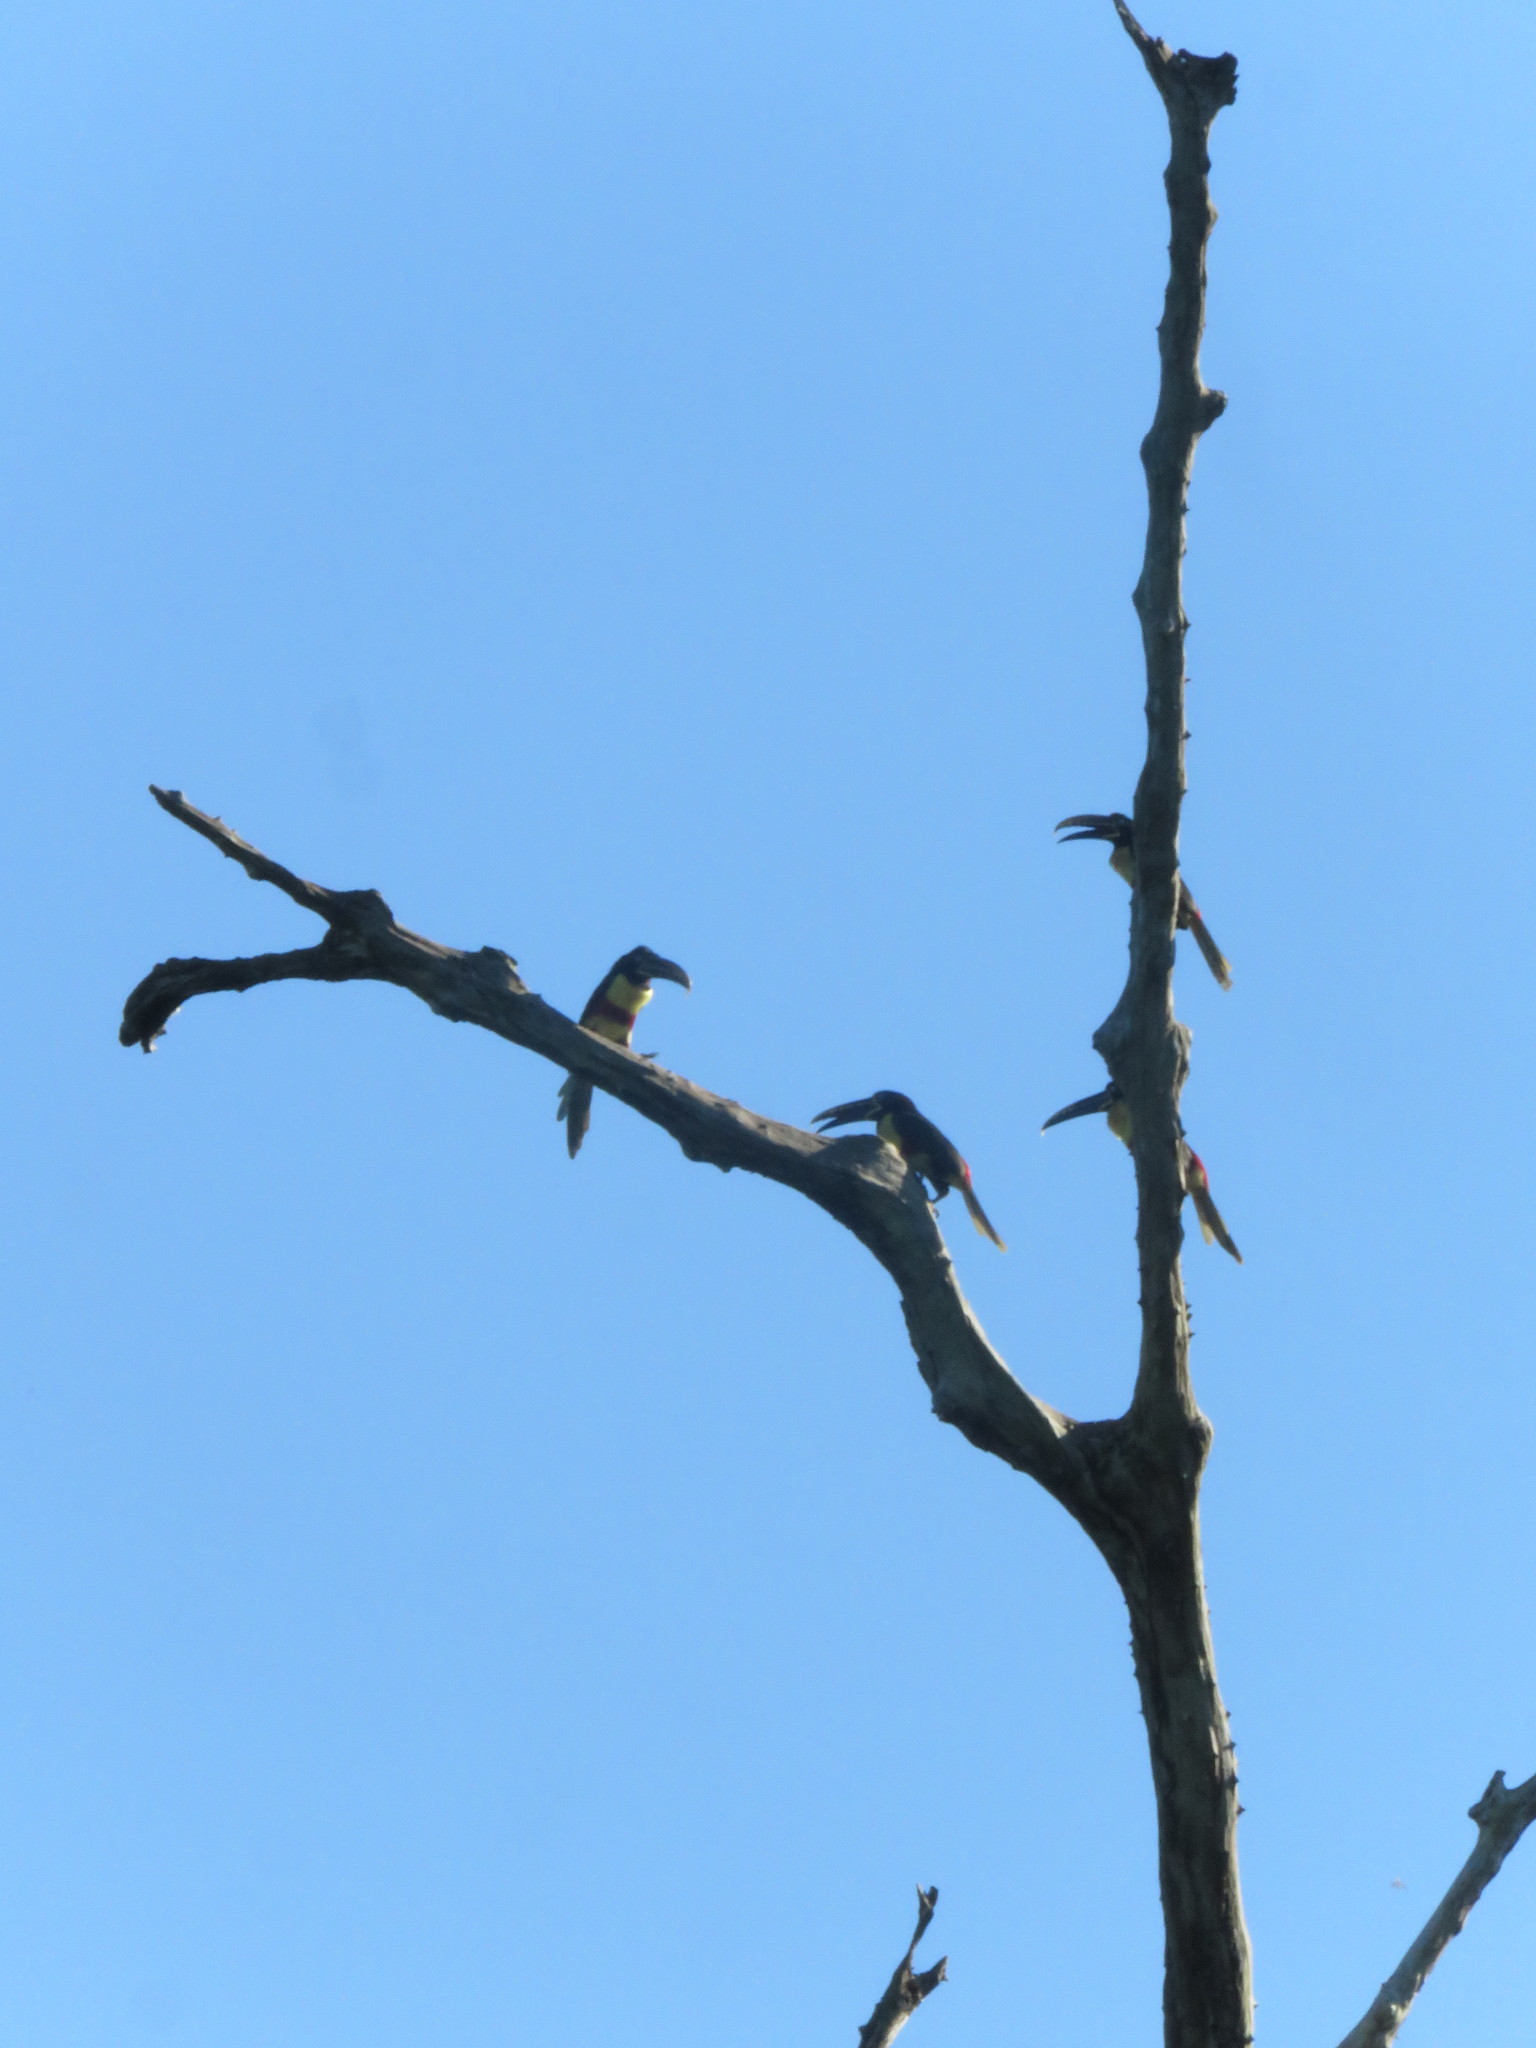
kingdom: Animalia
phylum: Chordata
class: Aves
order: Piciformes
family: Ramphastidae
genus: Pteroglossus
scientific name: Pteroglossus castanotis
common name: Chestnut-eared aracari
